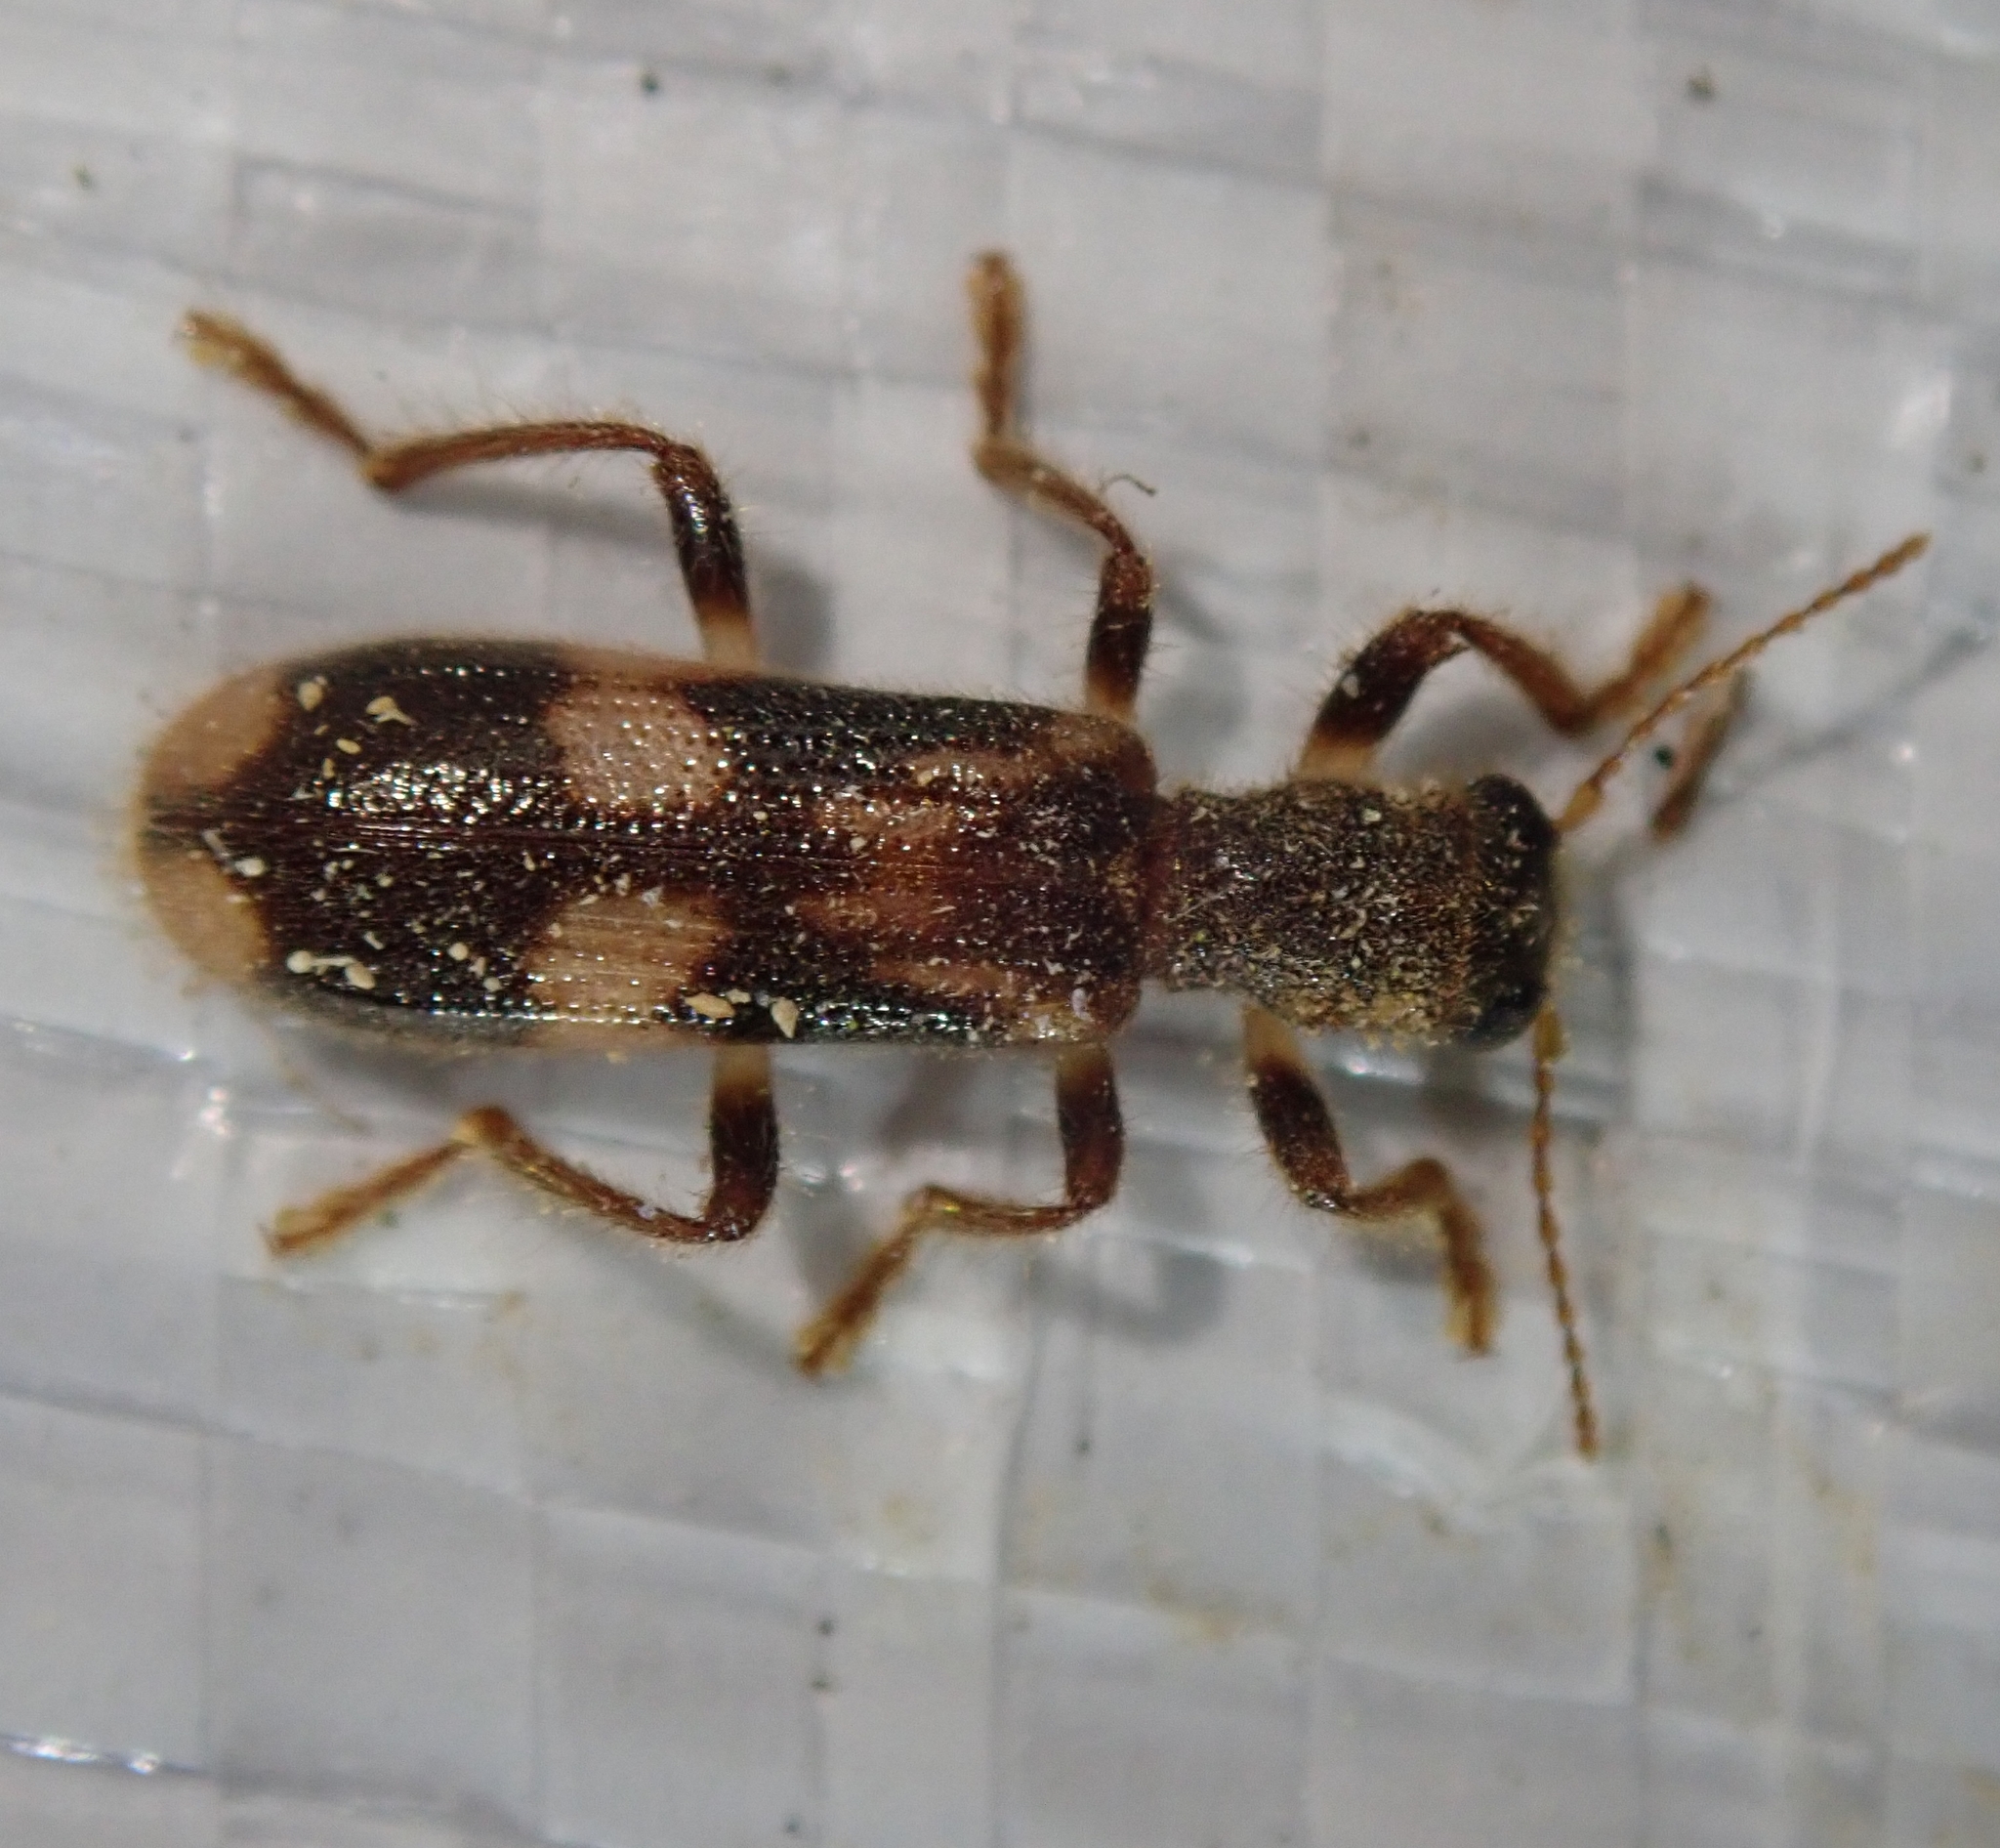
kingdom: Animalia
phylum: Arthropoda
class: Insecta
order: Coleoptera
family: Cleridae
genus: Opilo
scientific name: Opilo mollis
